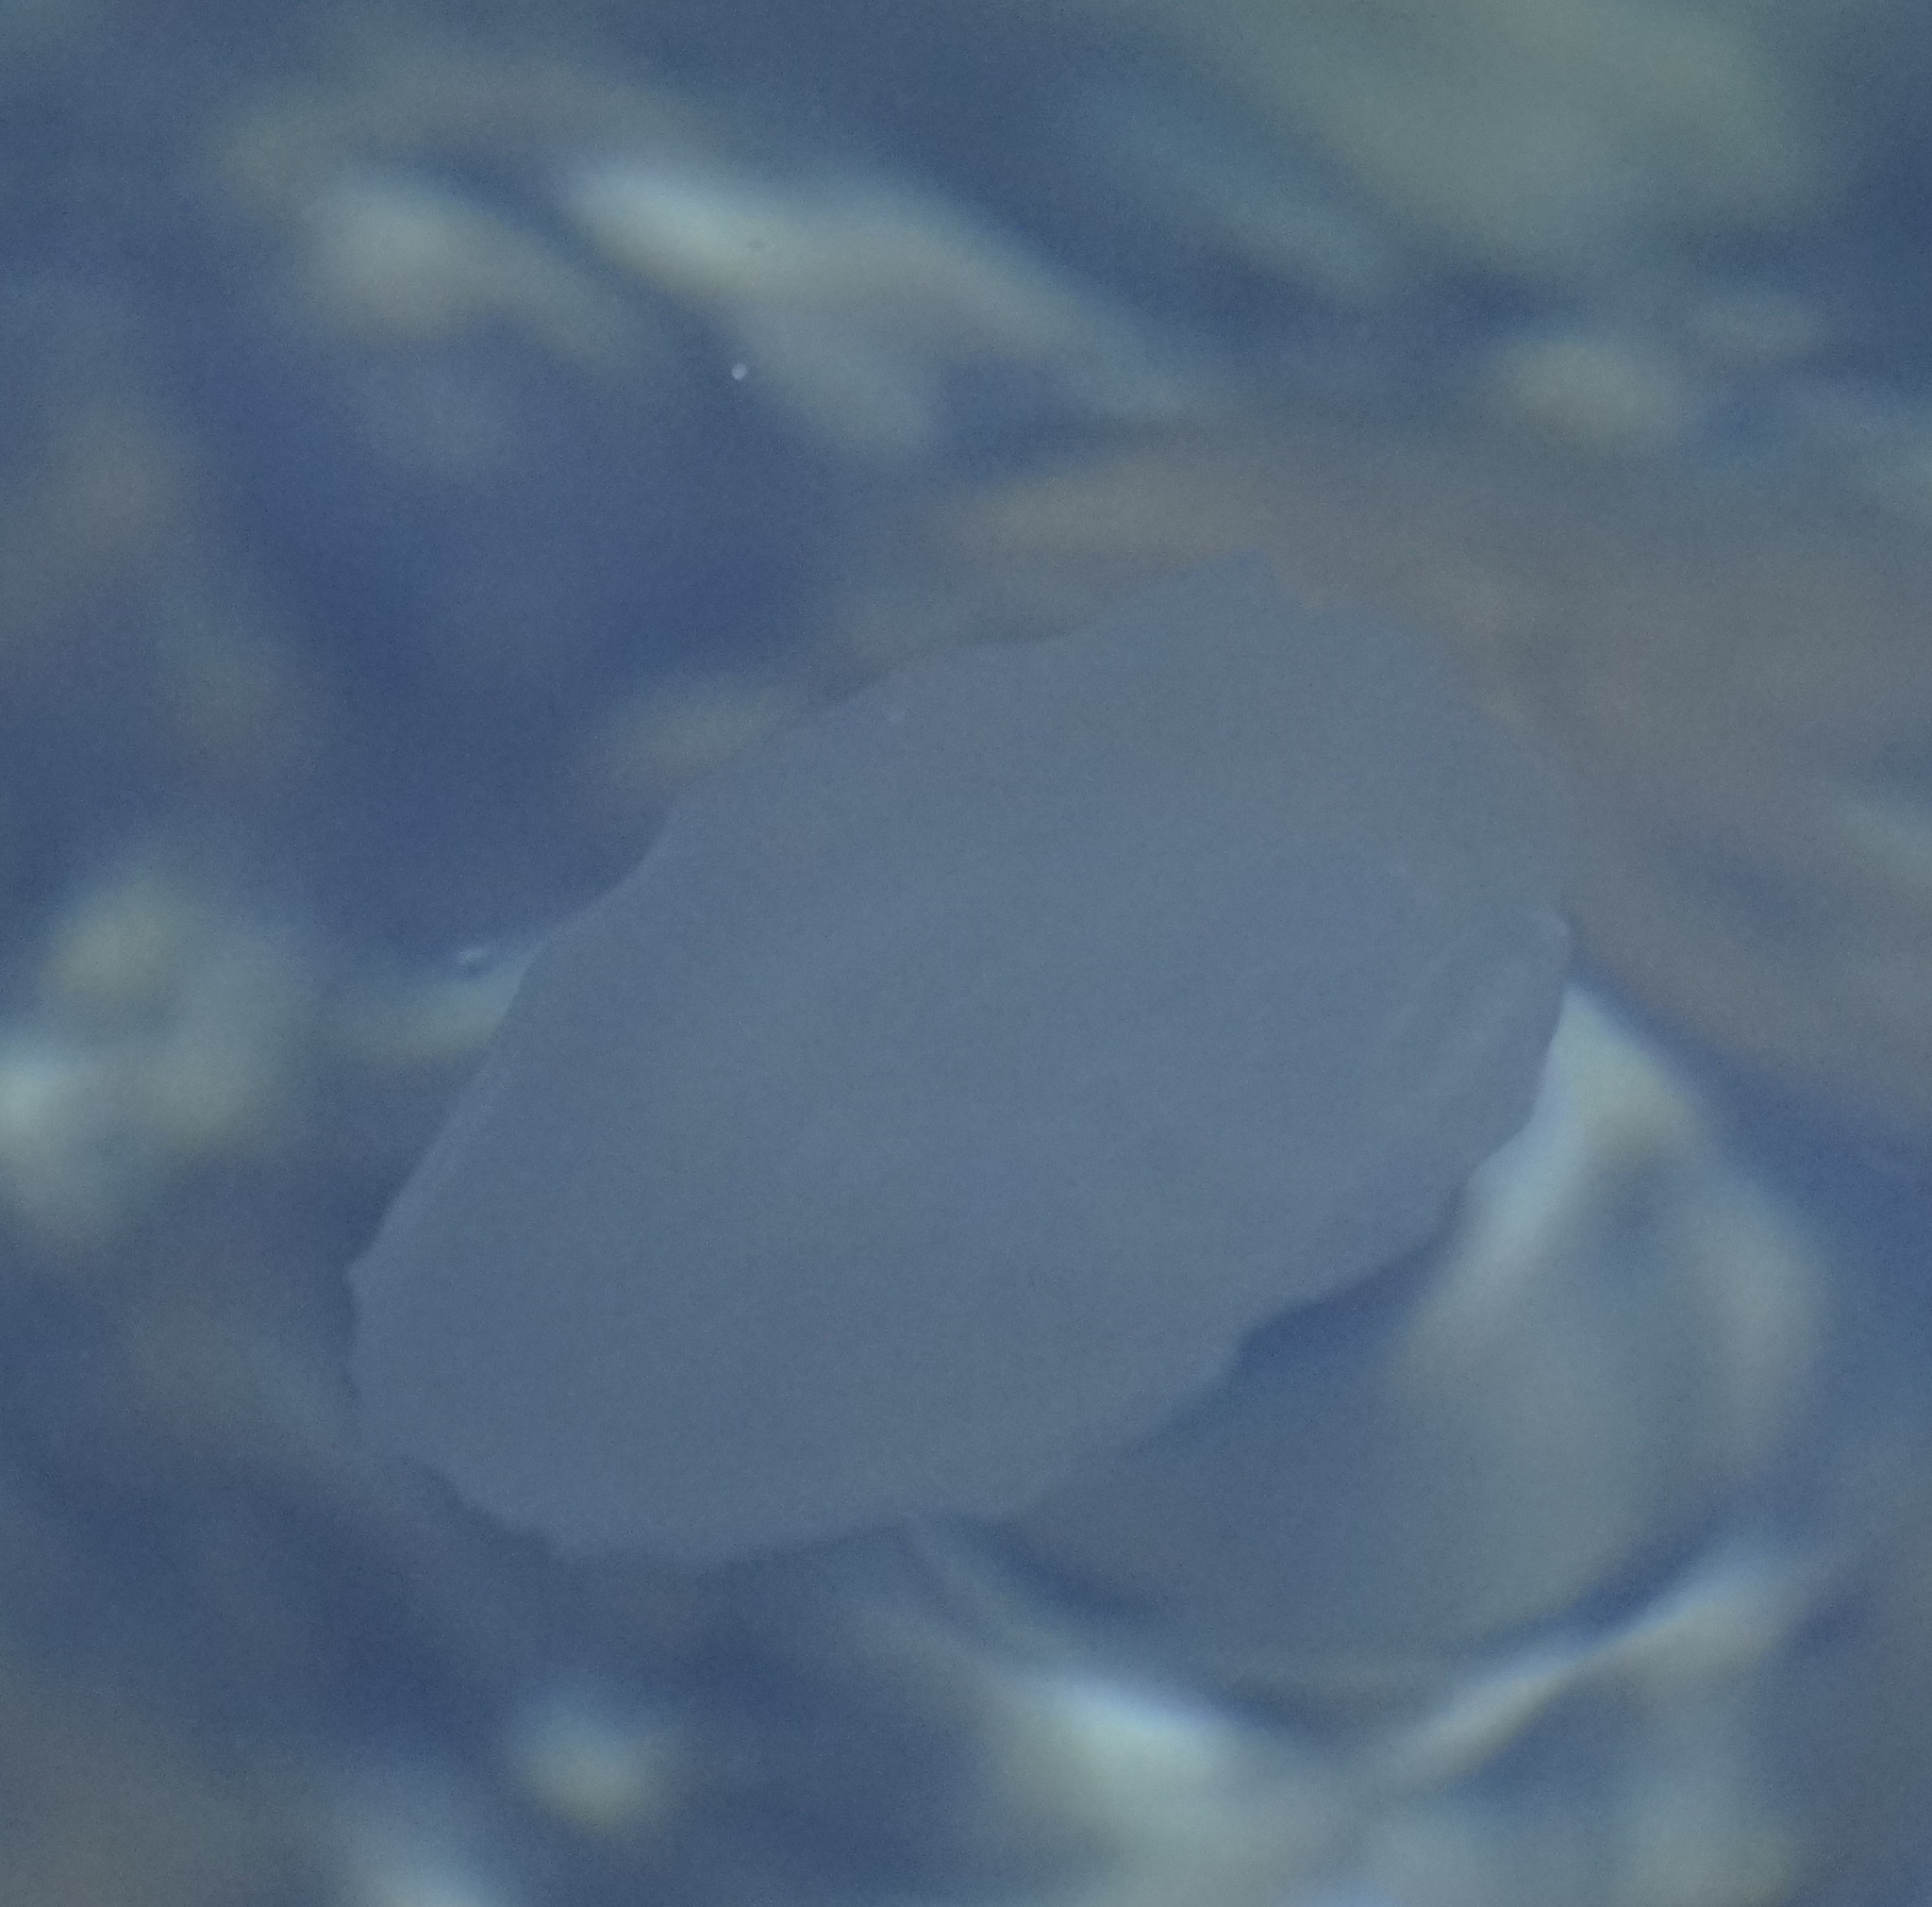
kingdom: Animalia
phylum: Cnidaria
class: Scyphozoa
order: Semaeostomeae
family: Ulmaridae
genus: Aurelia
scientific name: Aurelia
